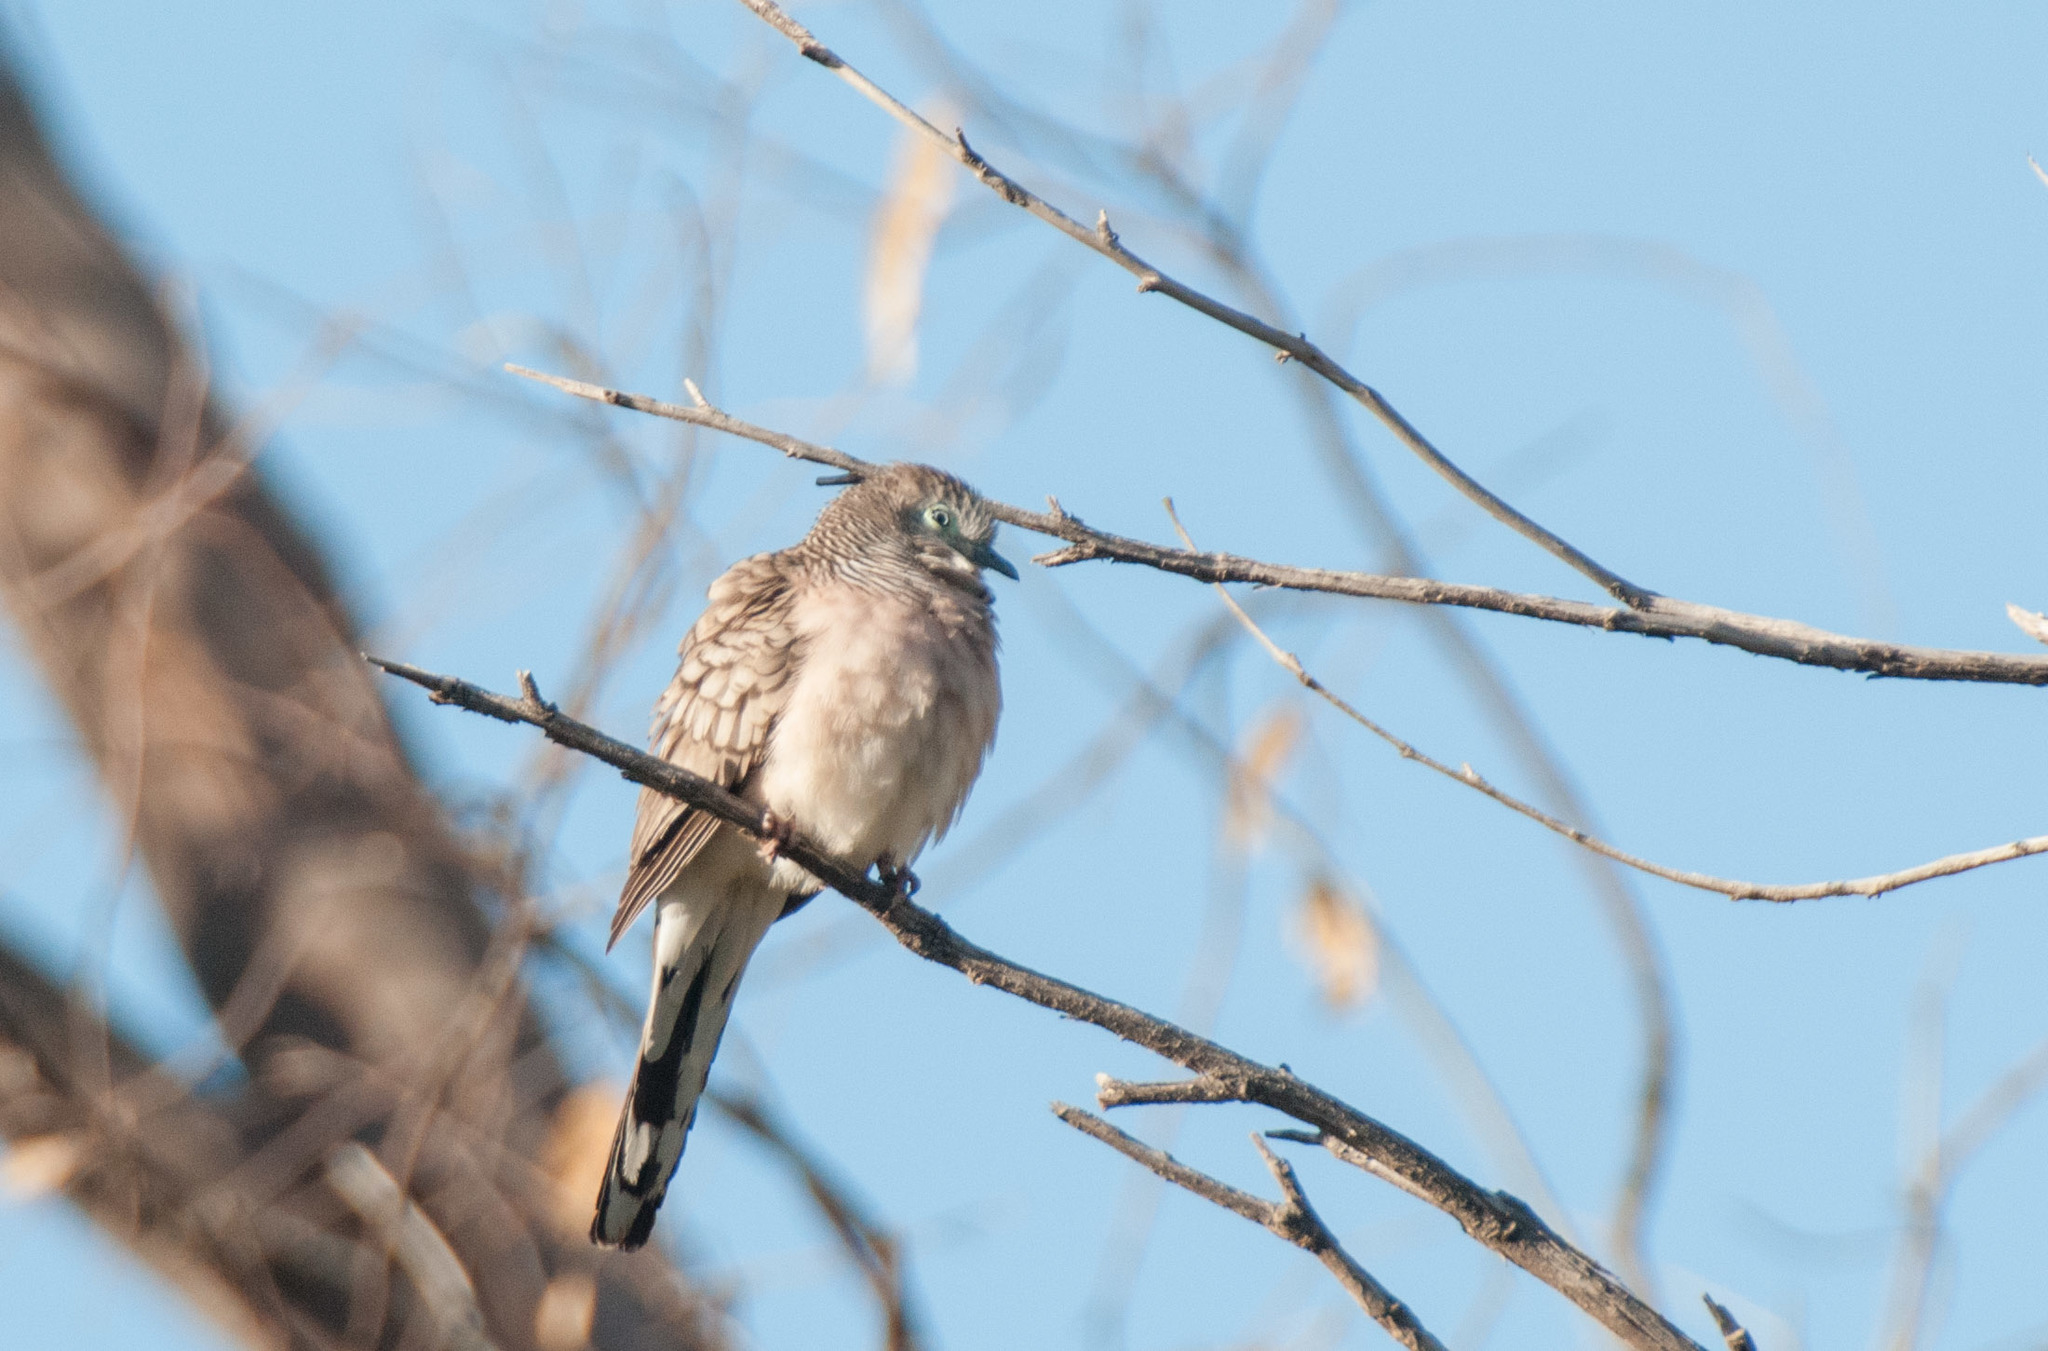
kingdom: Animalia
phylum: Chordata
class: Aves
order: Columbiformes
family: Columbidae
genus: Geopelia
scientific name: Geopelia placida
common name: Peaceful dove
